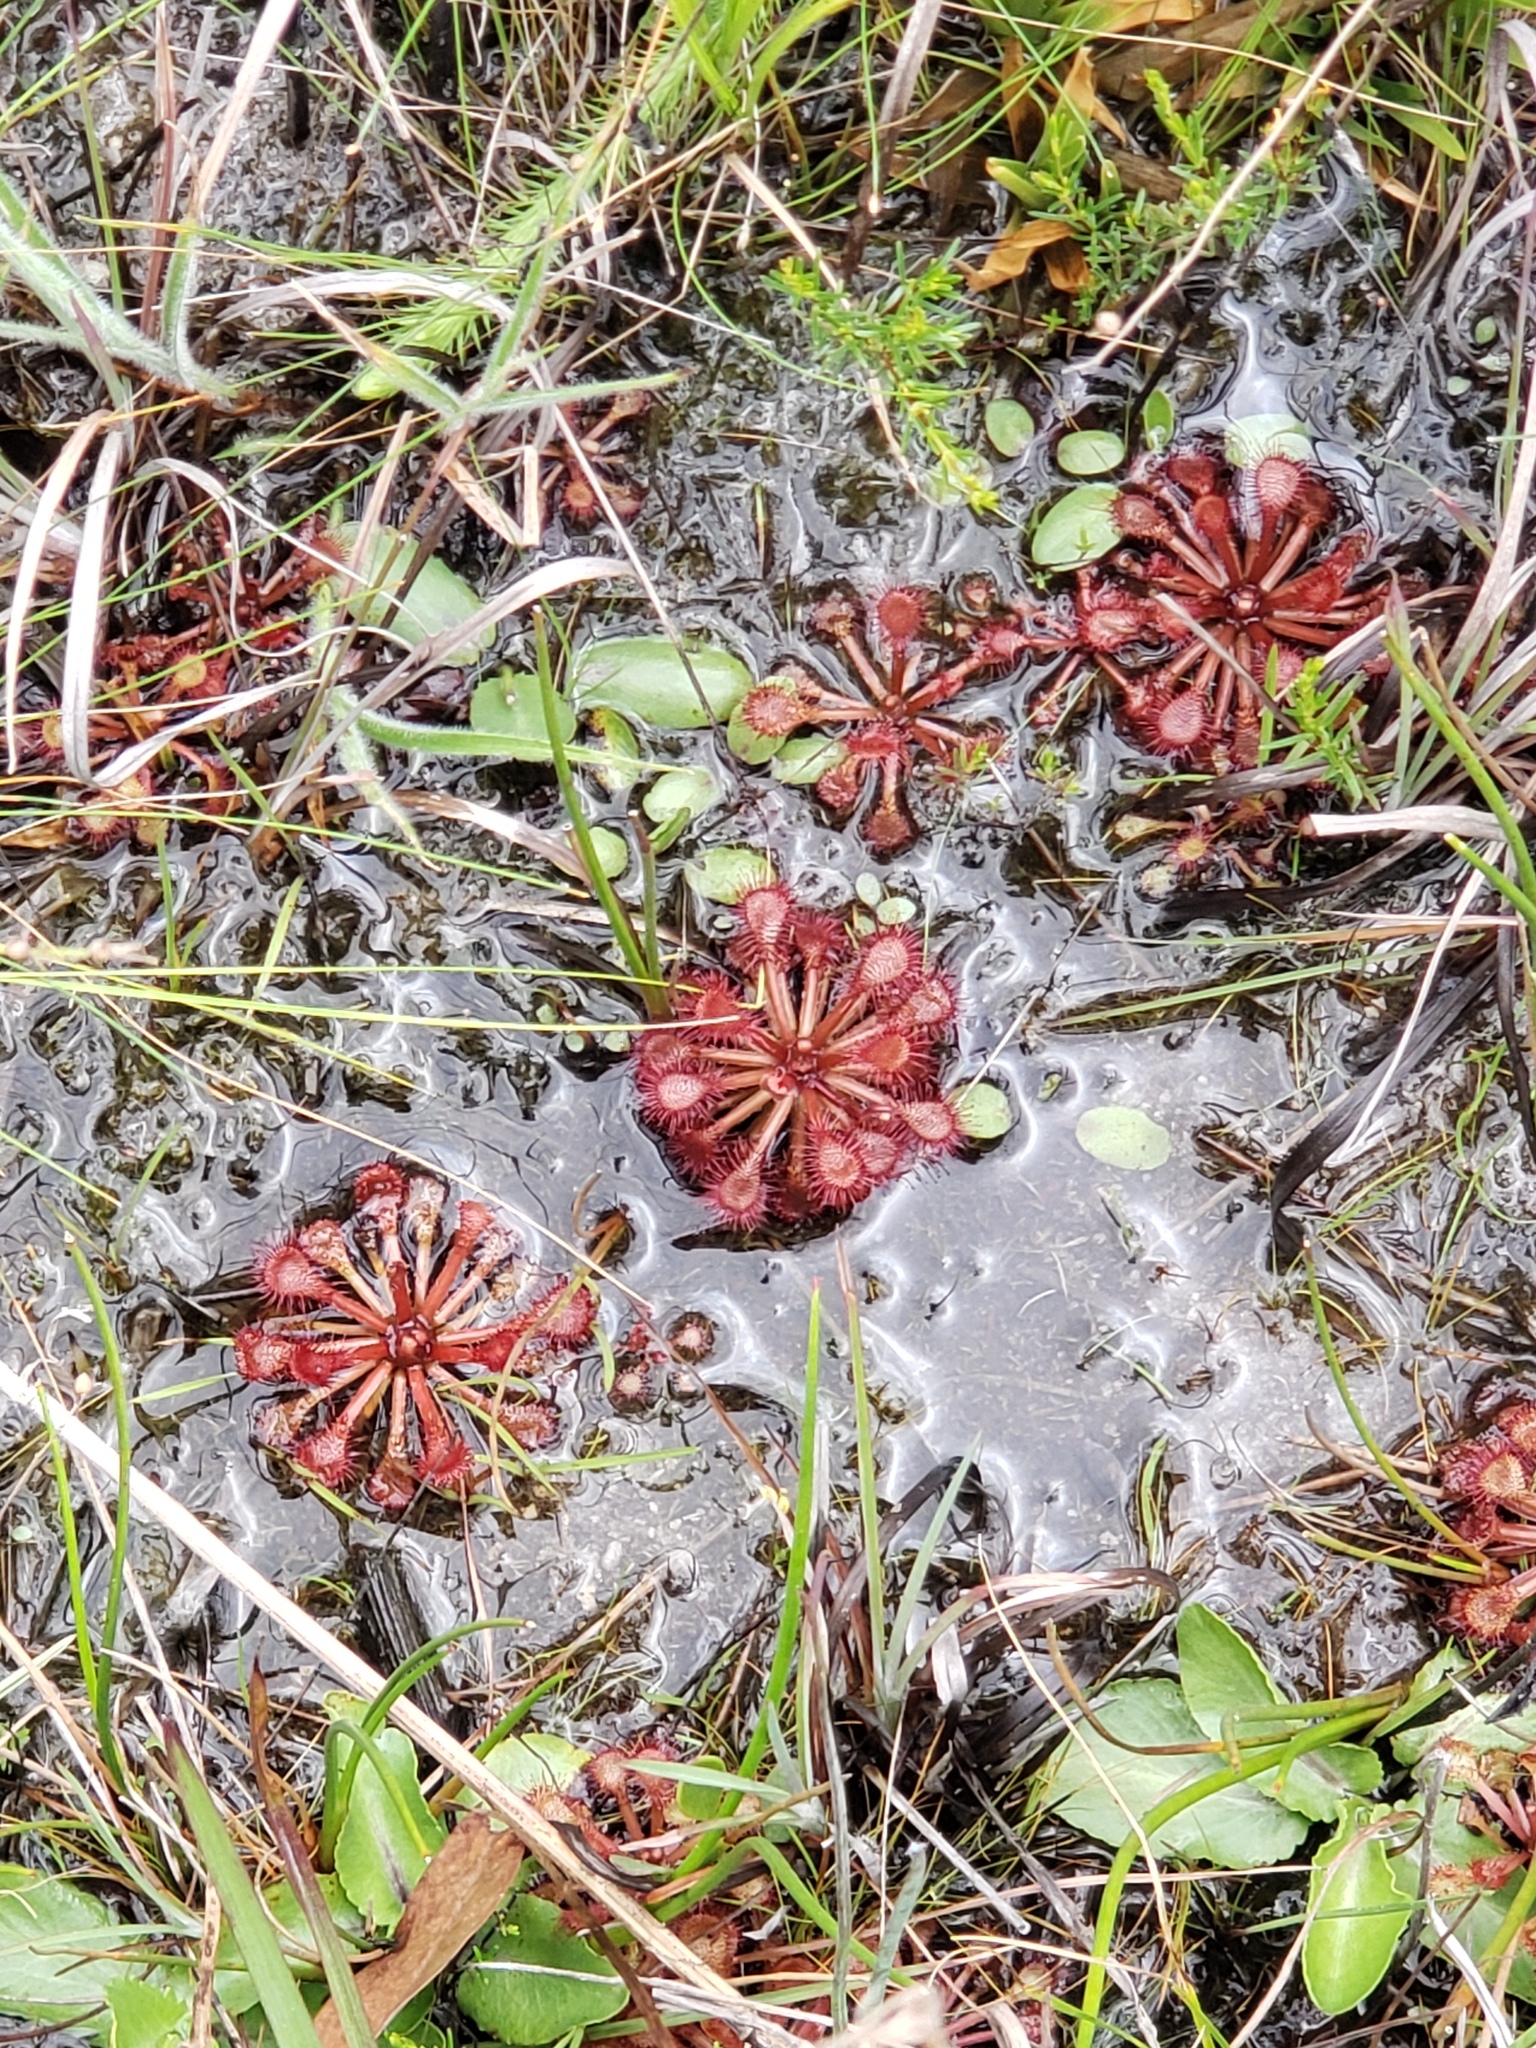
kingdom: Plantae
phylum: Tracheophyta
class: Magnoliopsida
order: Caryophyllales
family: Droseraceae
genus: Drosera
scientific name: Drosera capillaris
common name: Pink sundew
